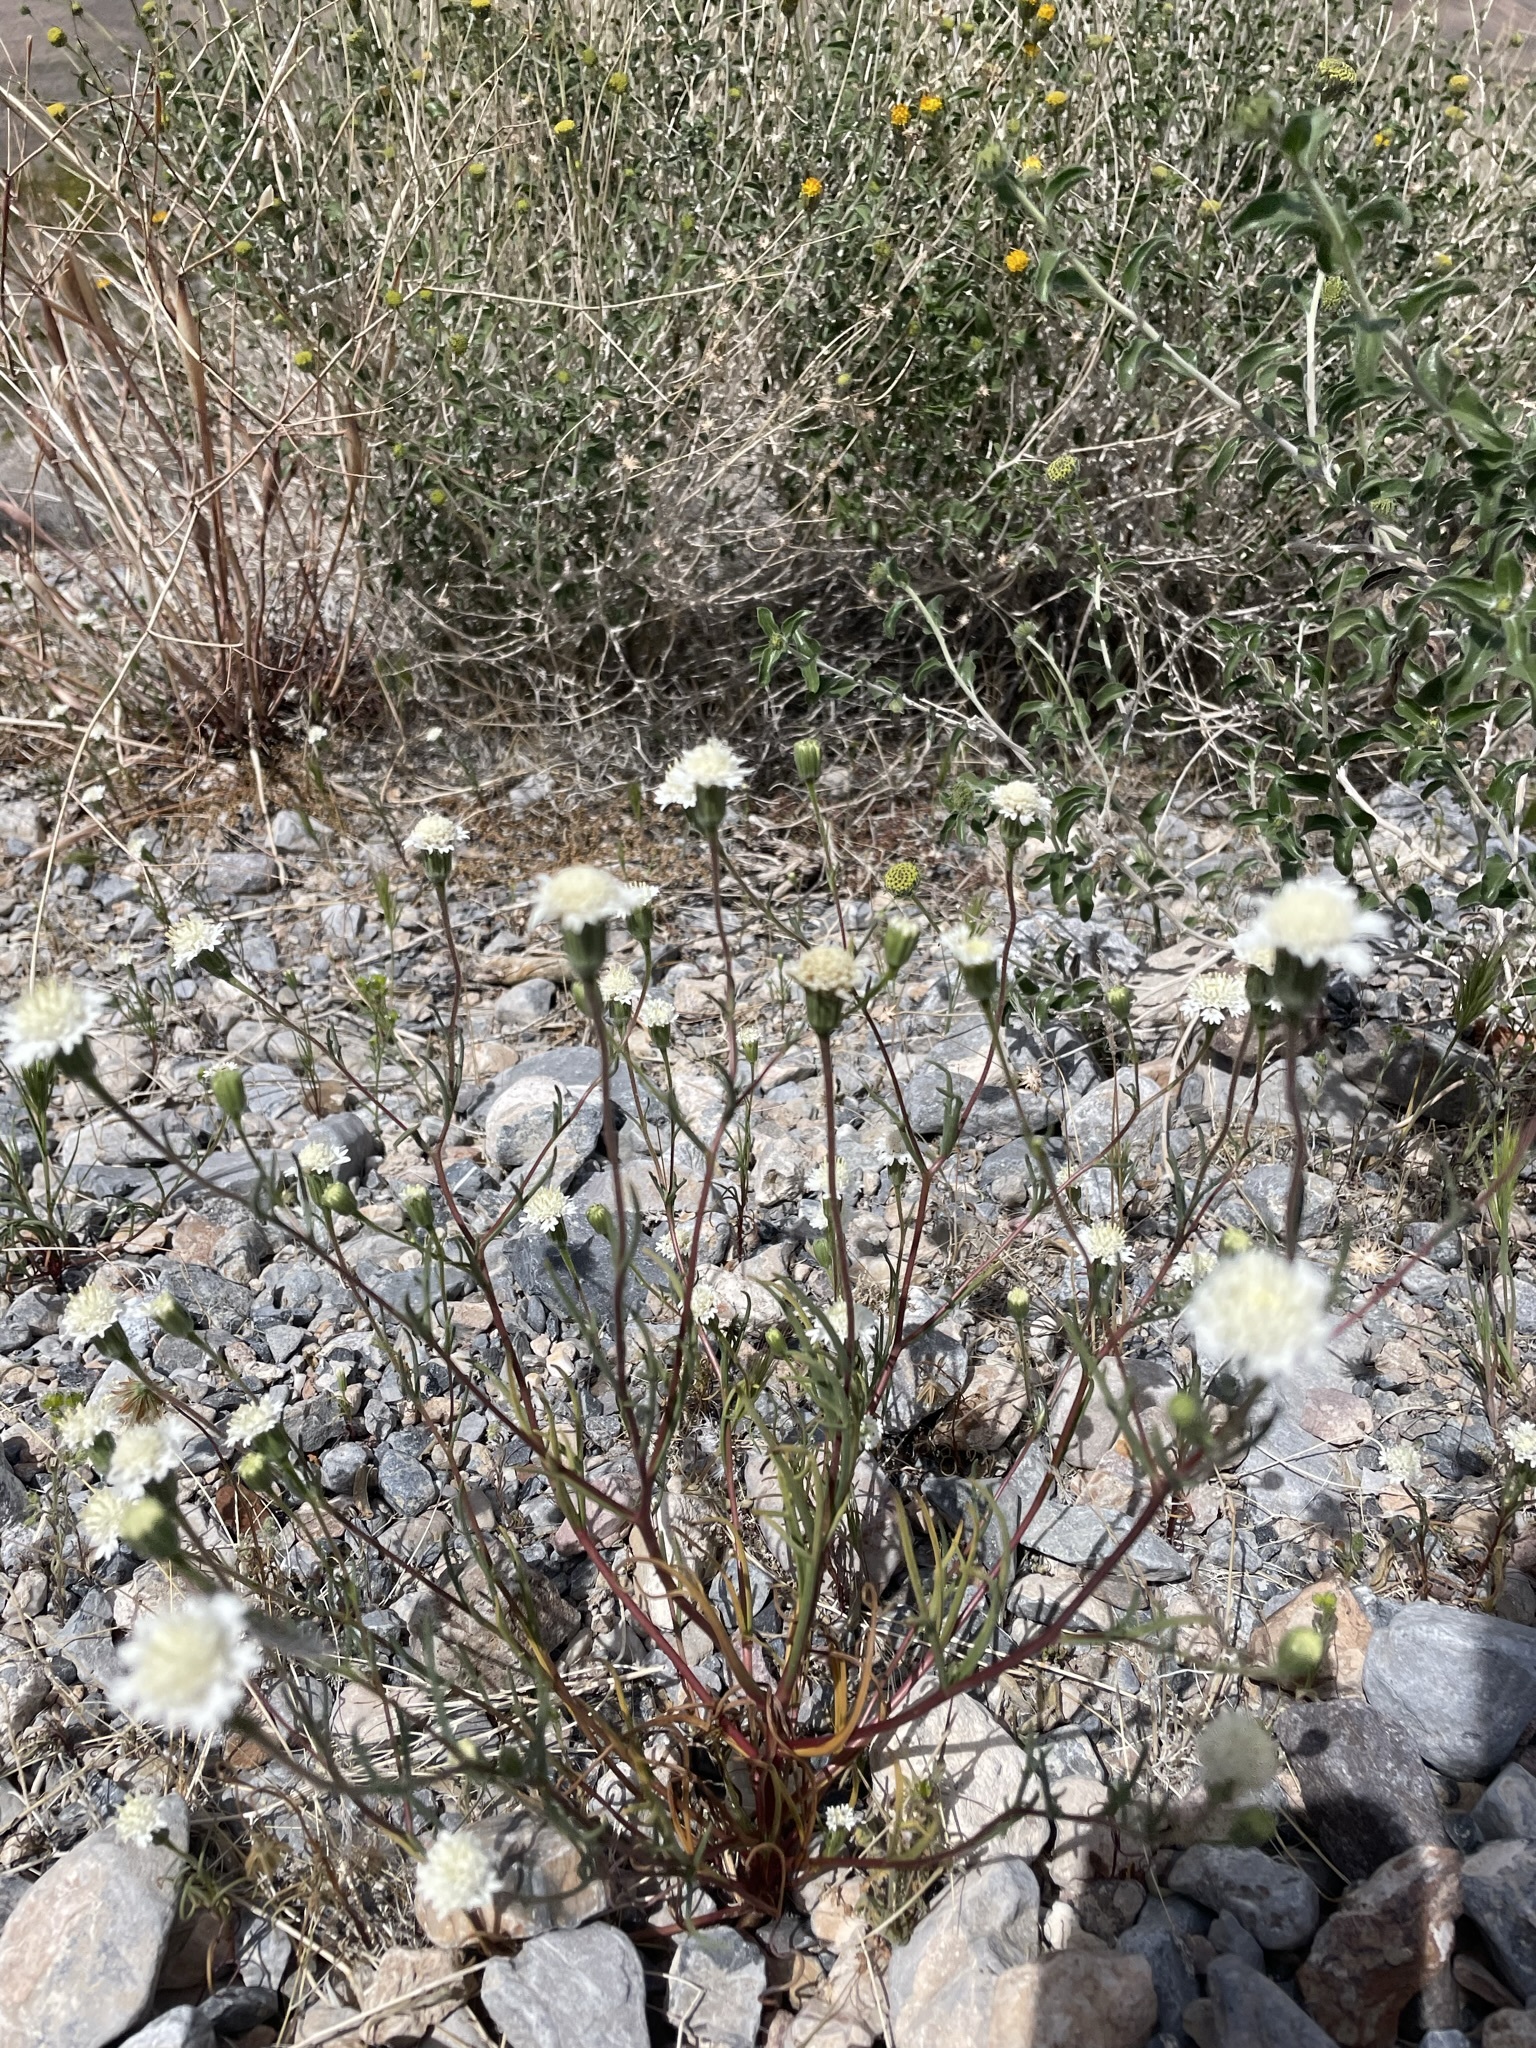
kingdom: Plantae
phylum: Tracheophyta
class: Magnoliopsida
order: Asterales
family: Asteraceae
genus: Chaenactis
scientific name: Chaenactis fremontii
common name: Fremont pincushion
